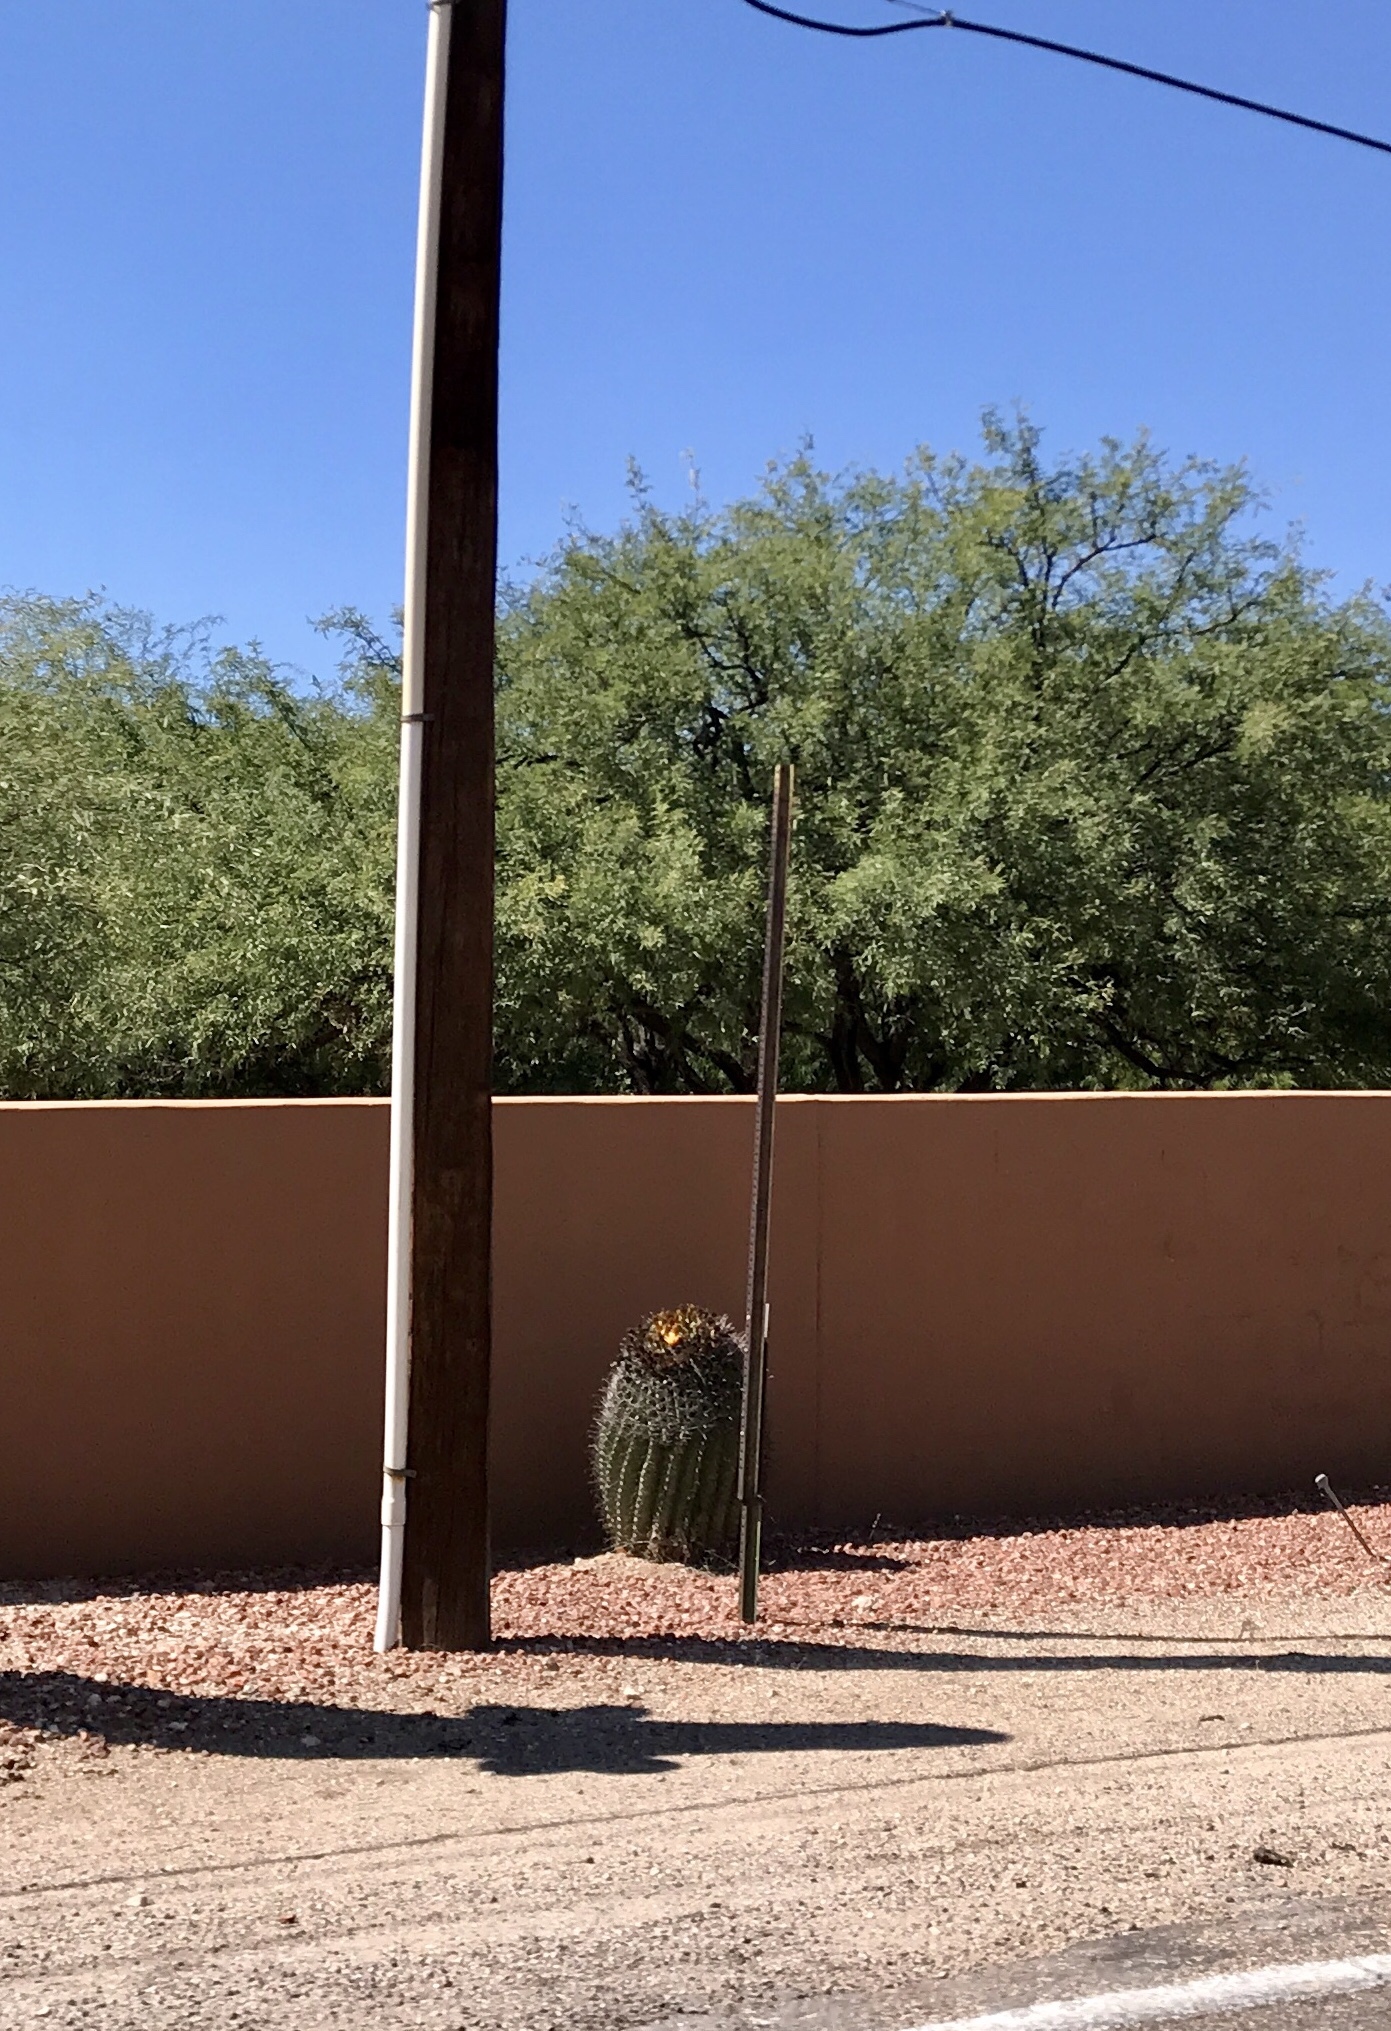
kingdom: Plantae
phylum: Tracheophyta
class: Magnoliopsida
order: Caryophyllales
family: Cactaceae
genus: Ferocactus
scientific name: Ferocactus wislizeni
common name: Candy barrel cactus
